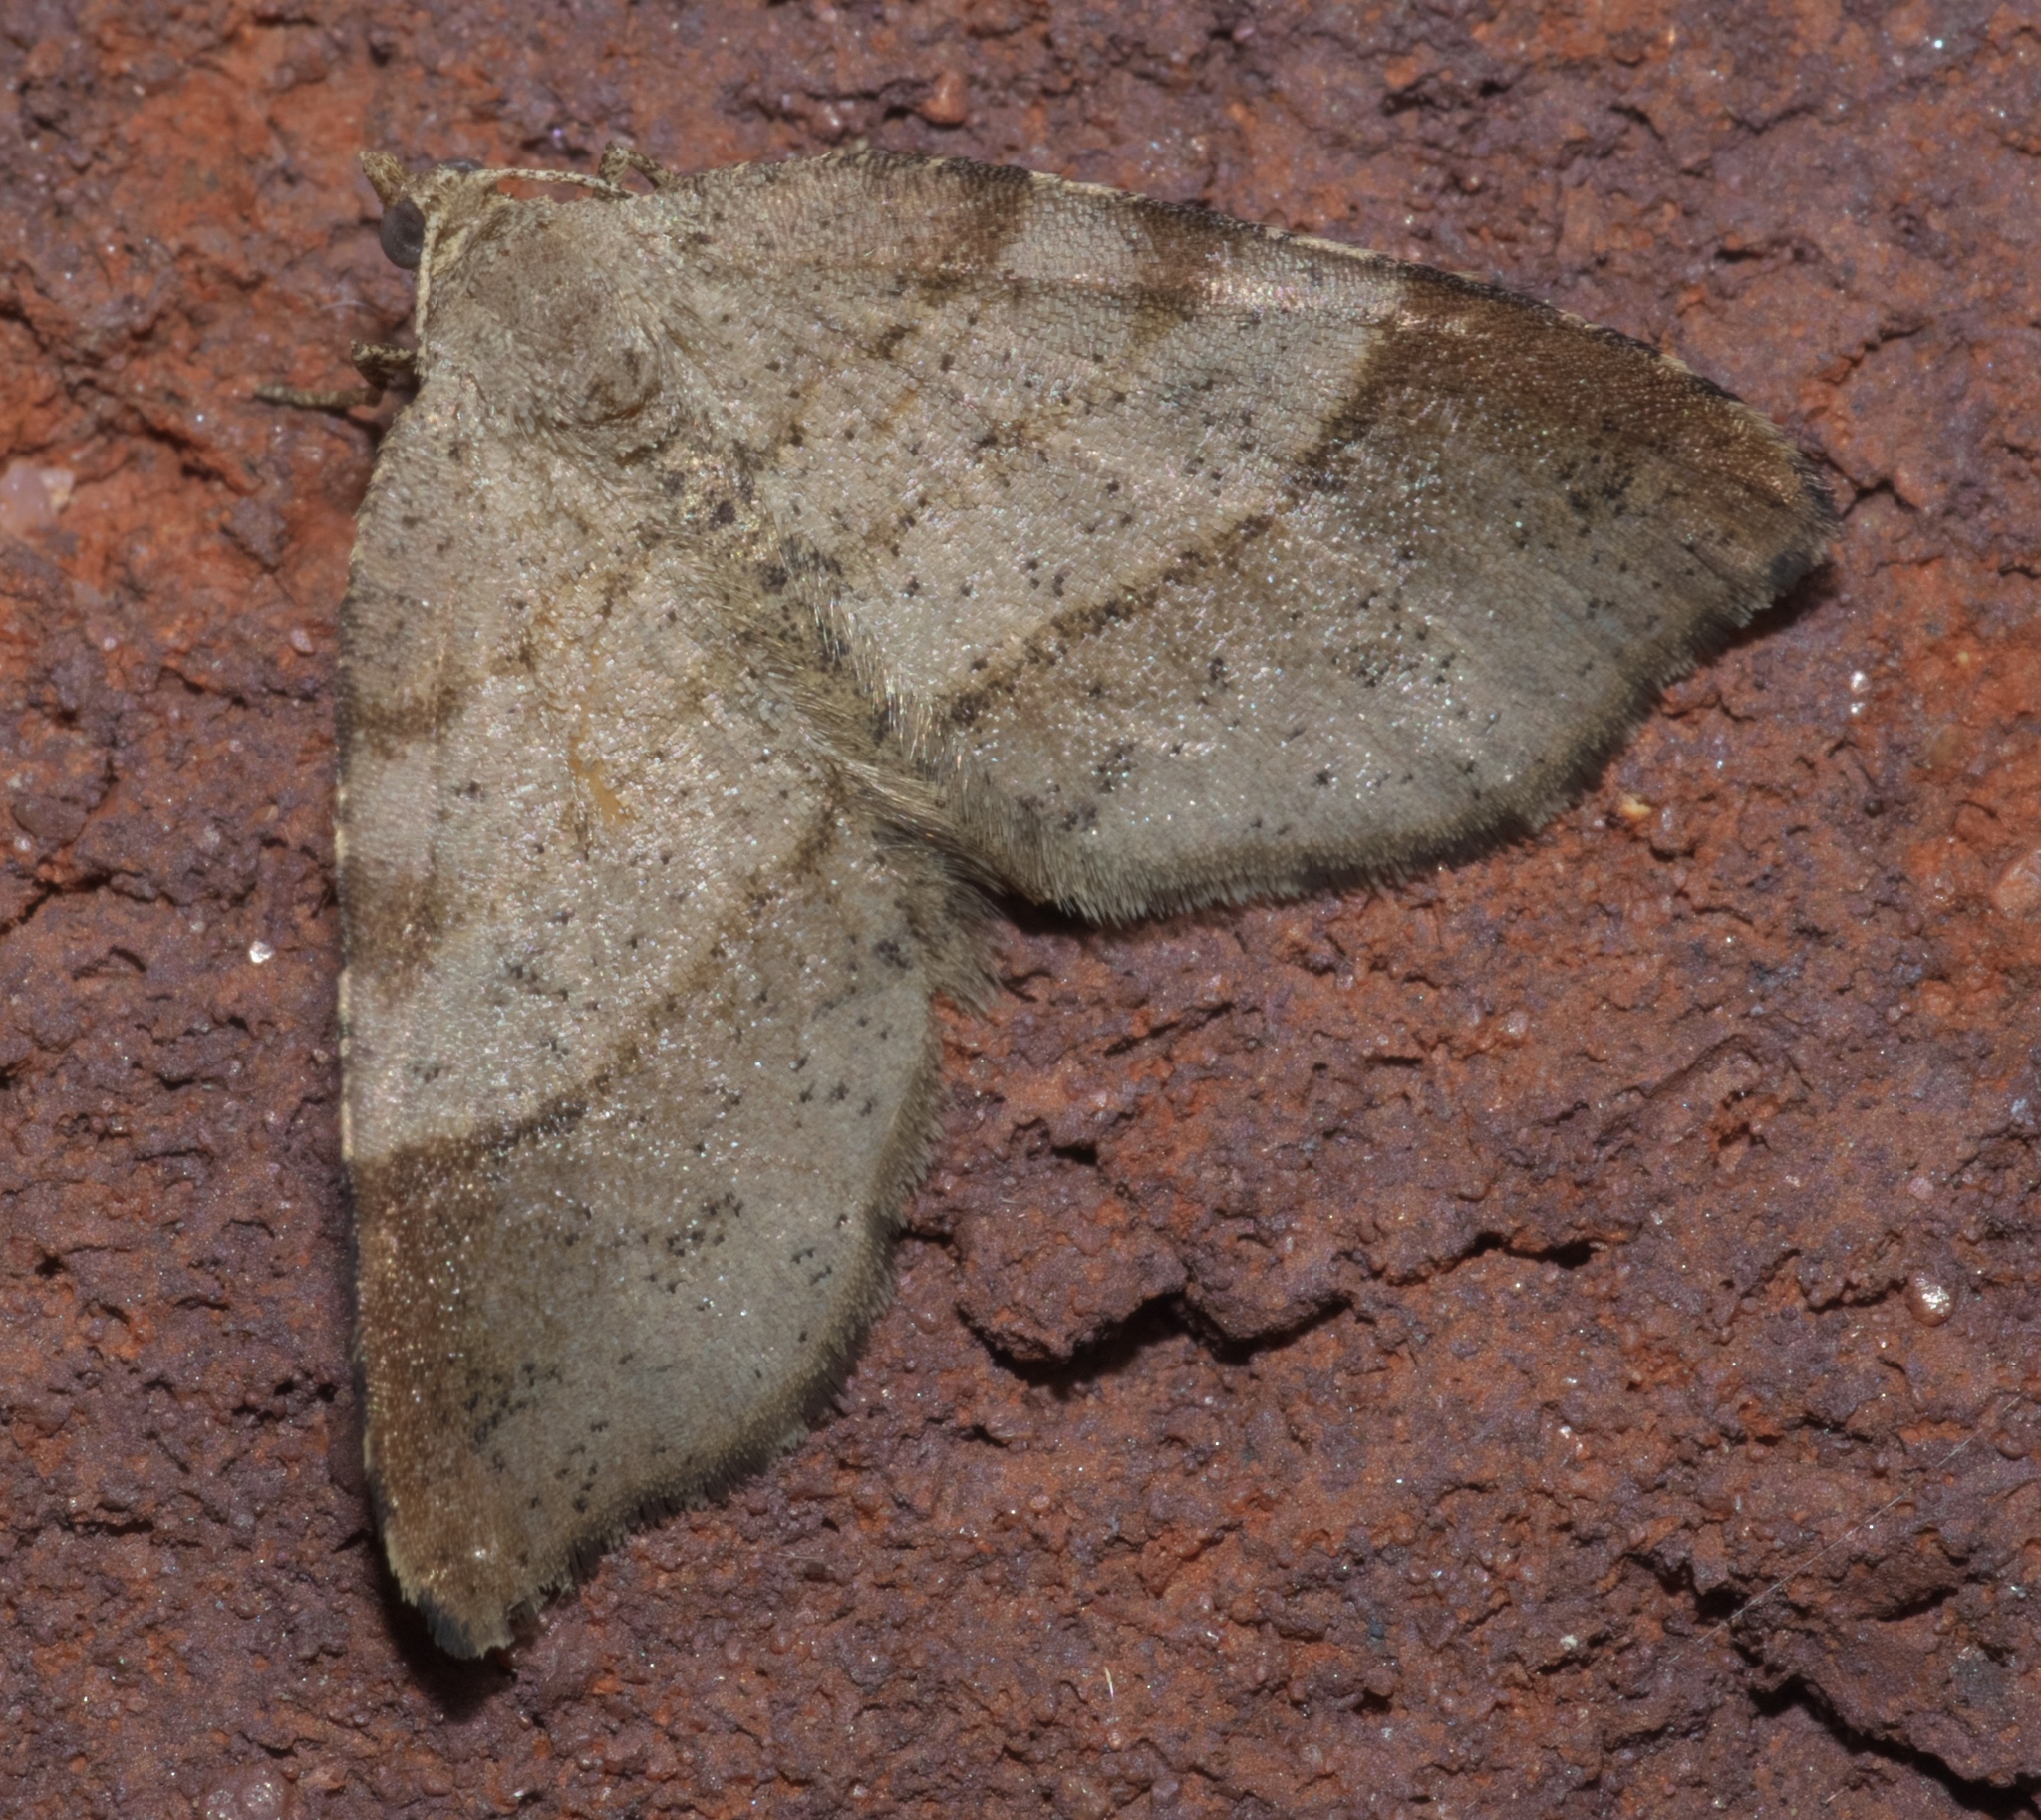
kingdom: Animalia
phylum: Arthropoda
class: Insecta
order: Lepidoptera
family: Geometridae
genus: Mellilla
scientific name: Mellilla xanthometata
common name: Orange wing moth
